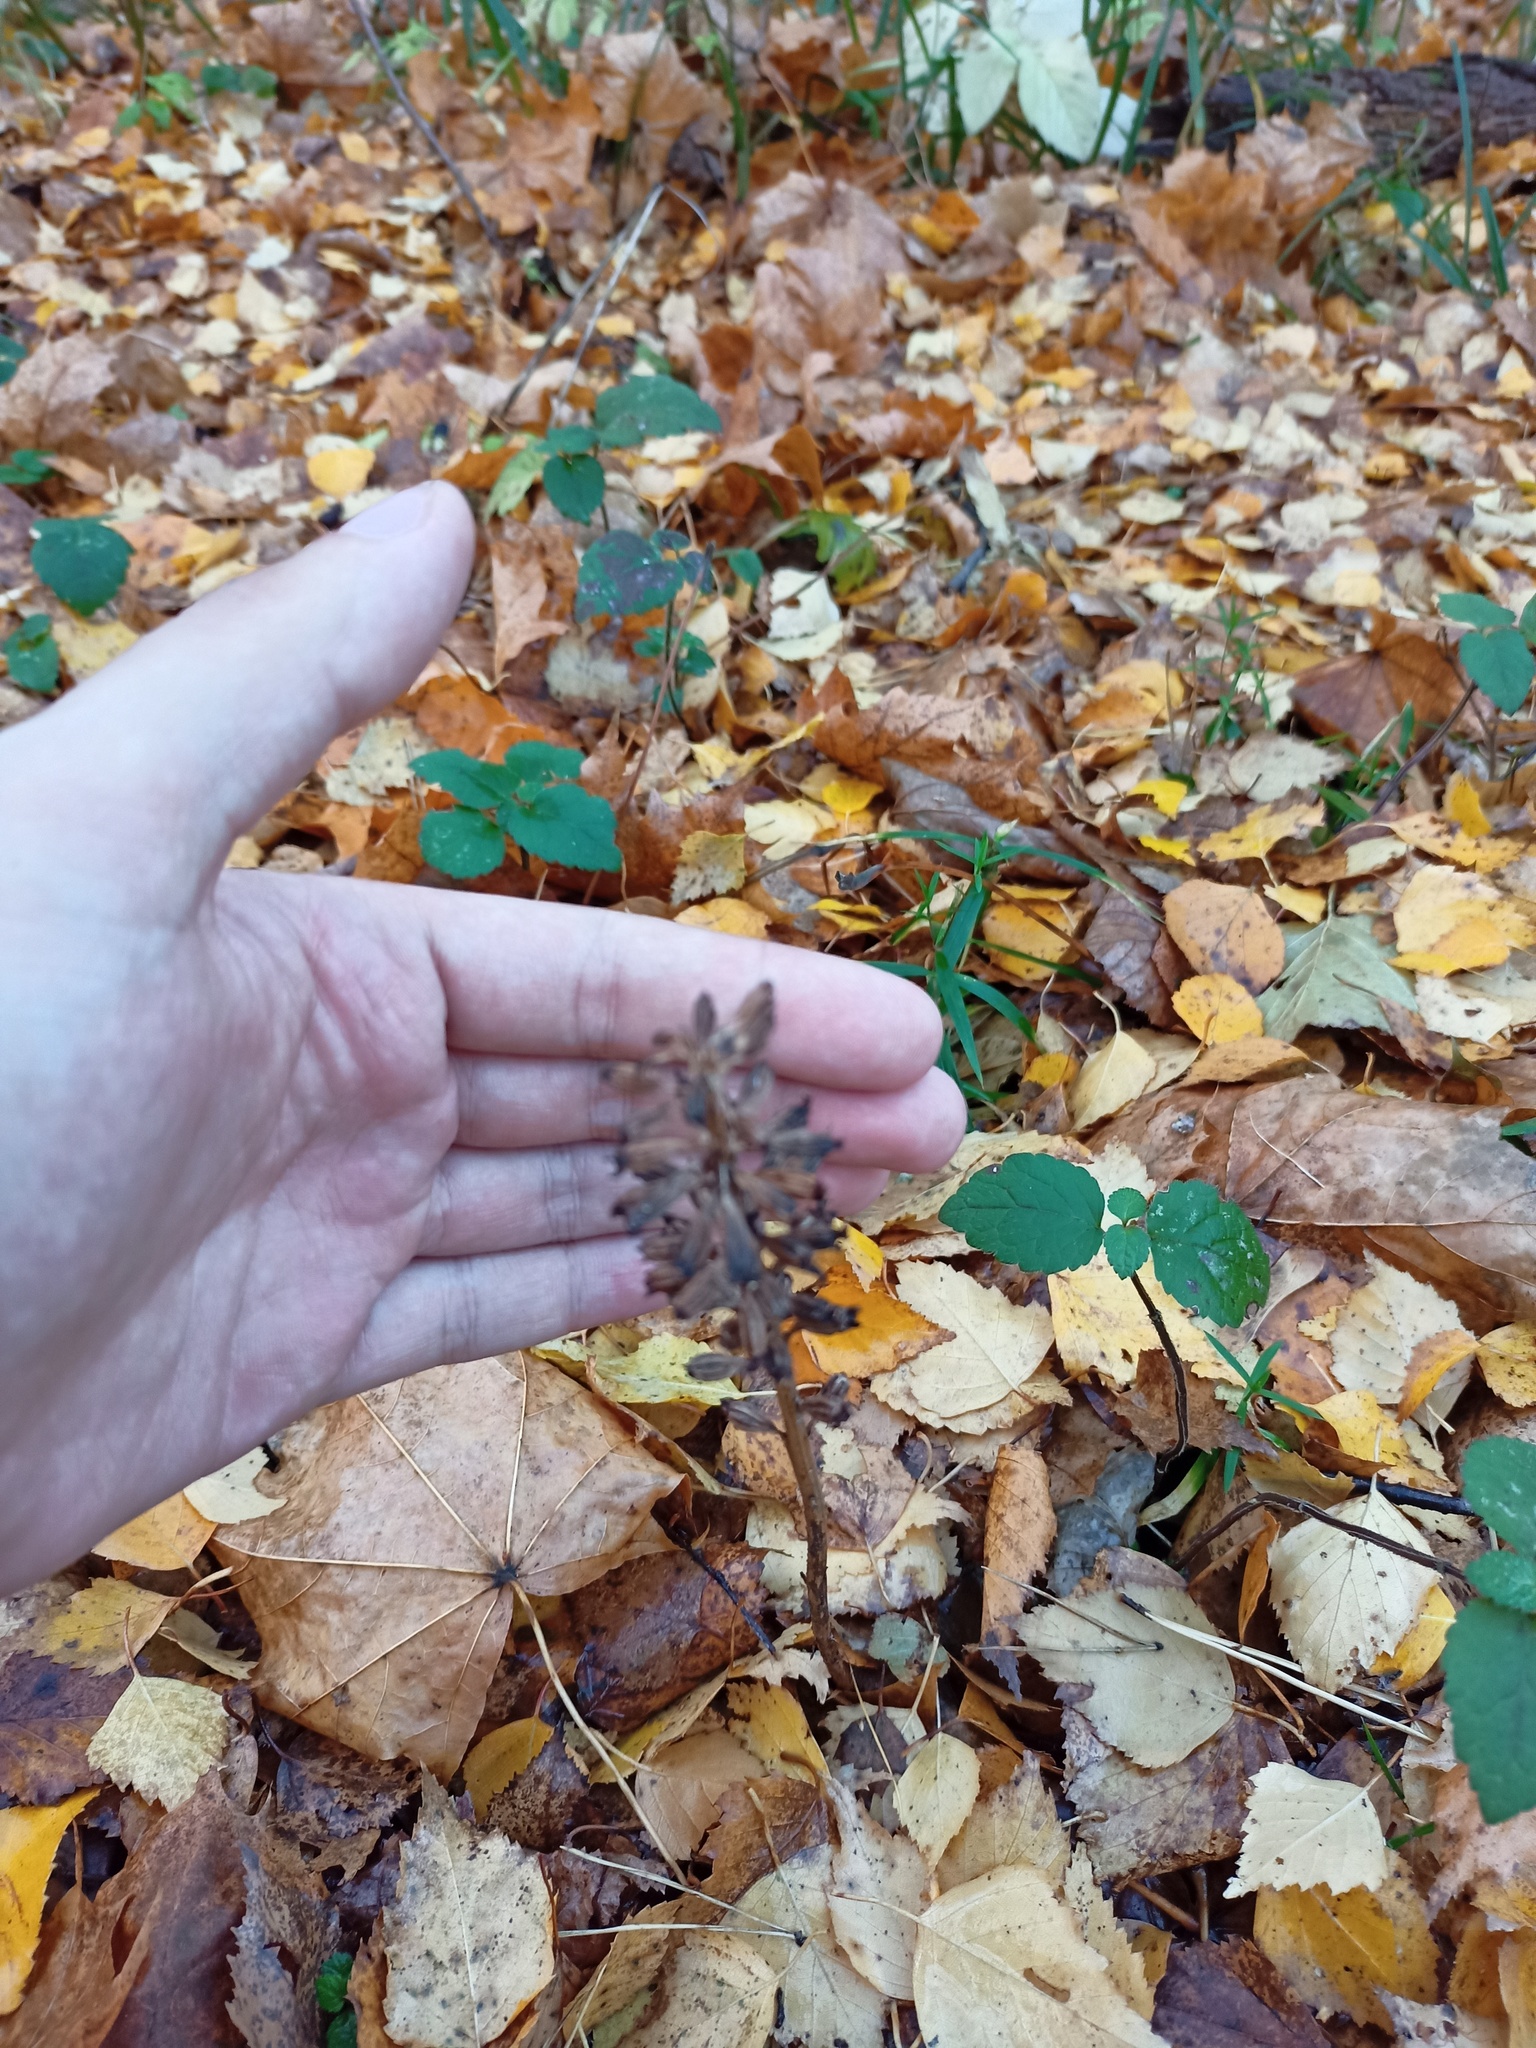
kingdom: Plantae
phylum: Tracheophyta
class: Liliopsida
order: Asparagales
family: Orchidaceae
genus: Neottia
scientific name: Neottia nidus-avis
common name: Bird's-nest orchid
